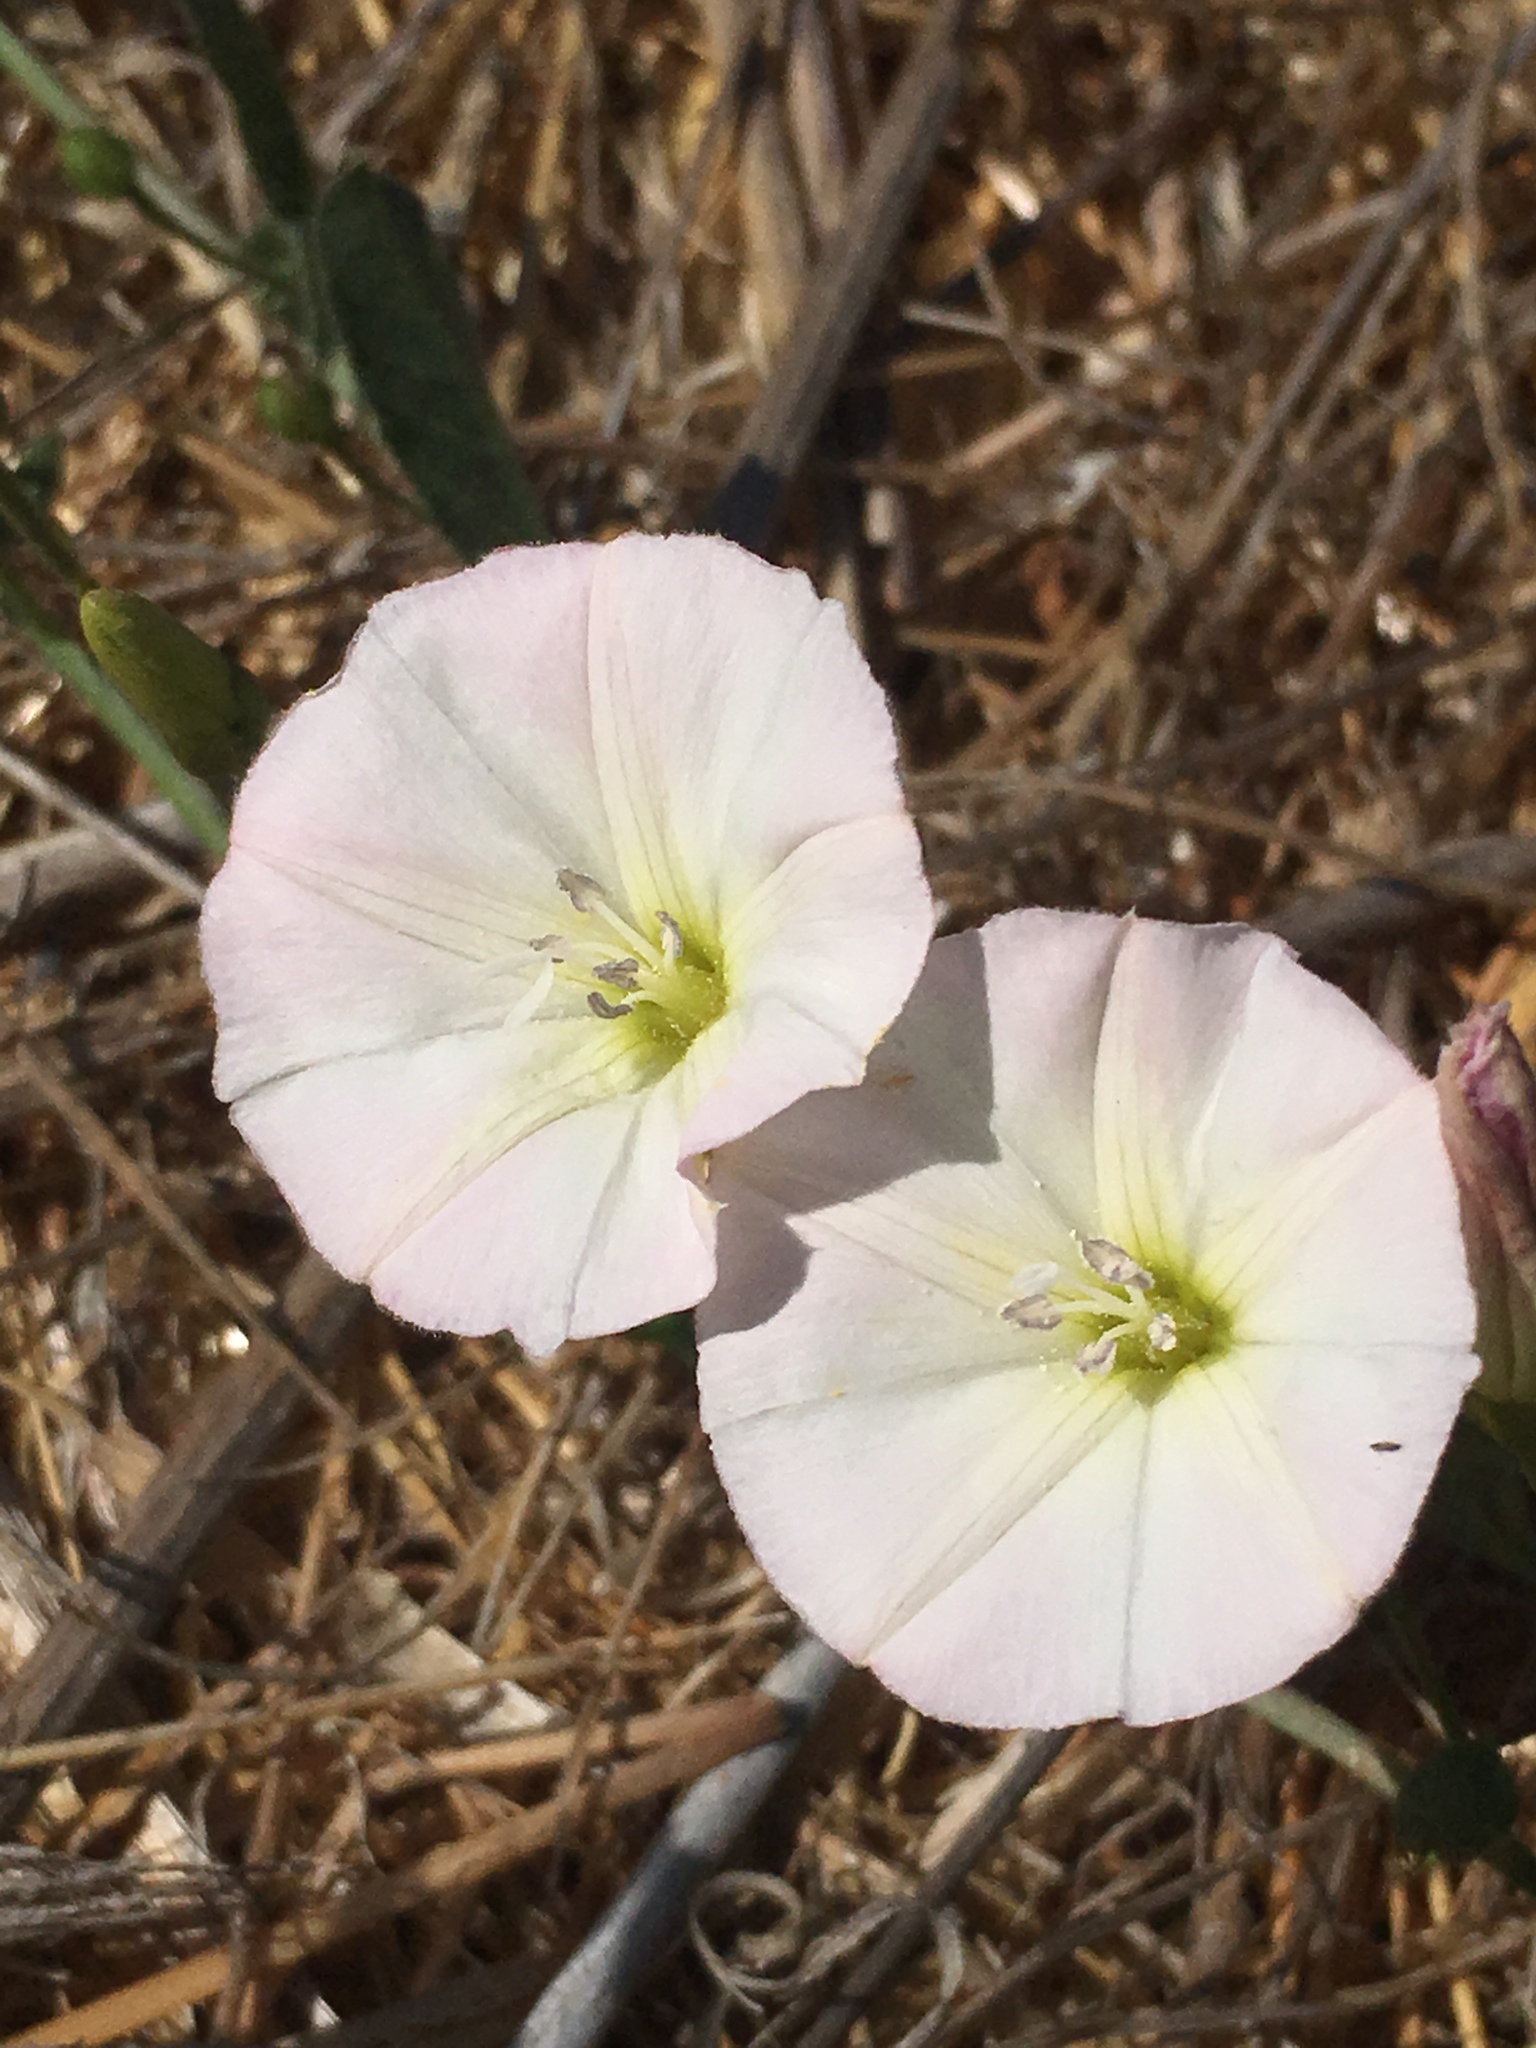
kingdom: Plantae
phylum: Tracheophyta
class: Magnoliopsida
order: Solanales
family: Convolvulaceae
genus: Convolvulus
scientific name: Convolvulus arvensis
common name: Field bindweed
